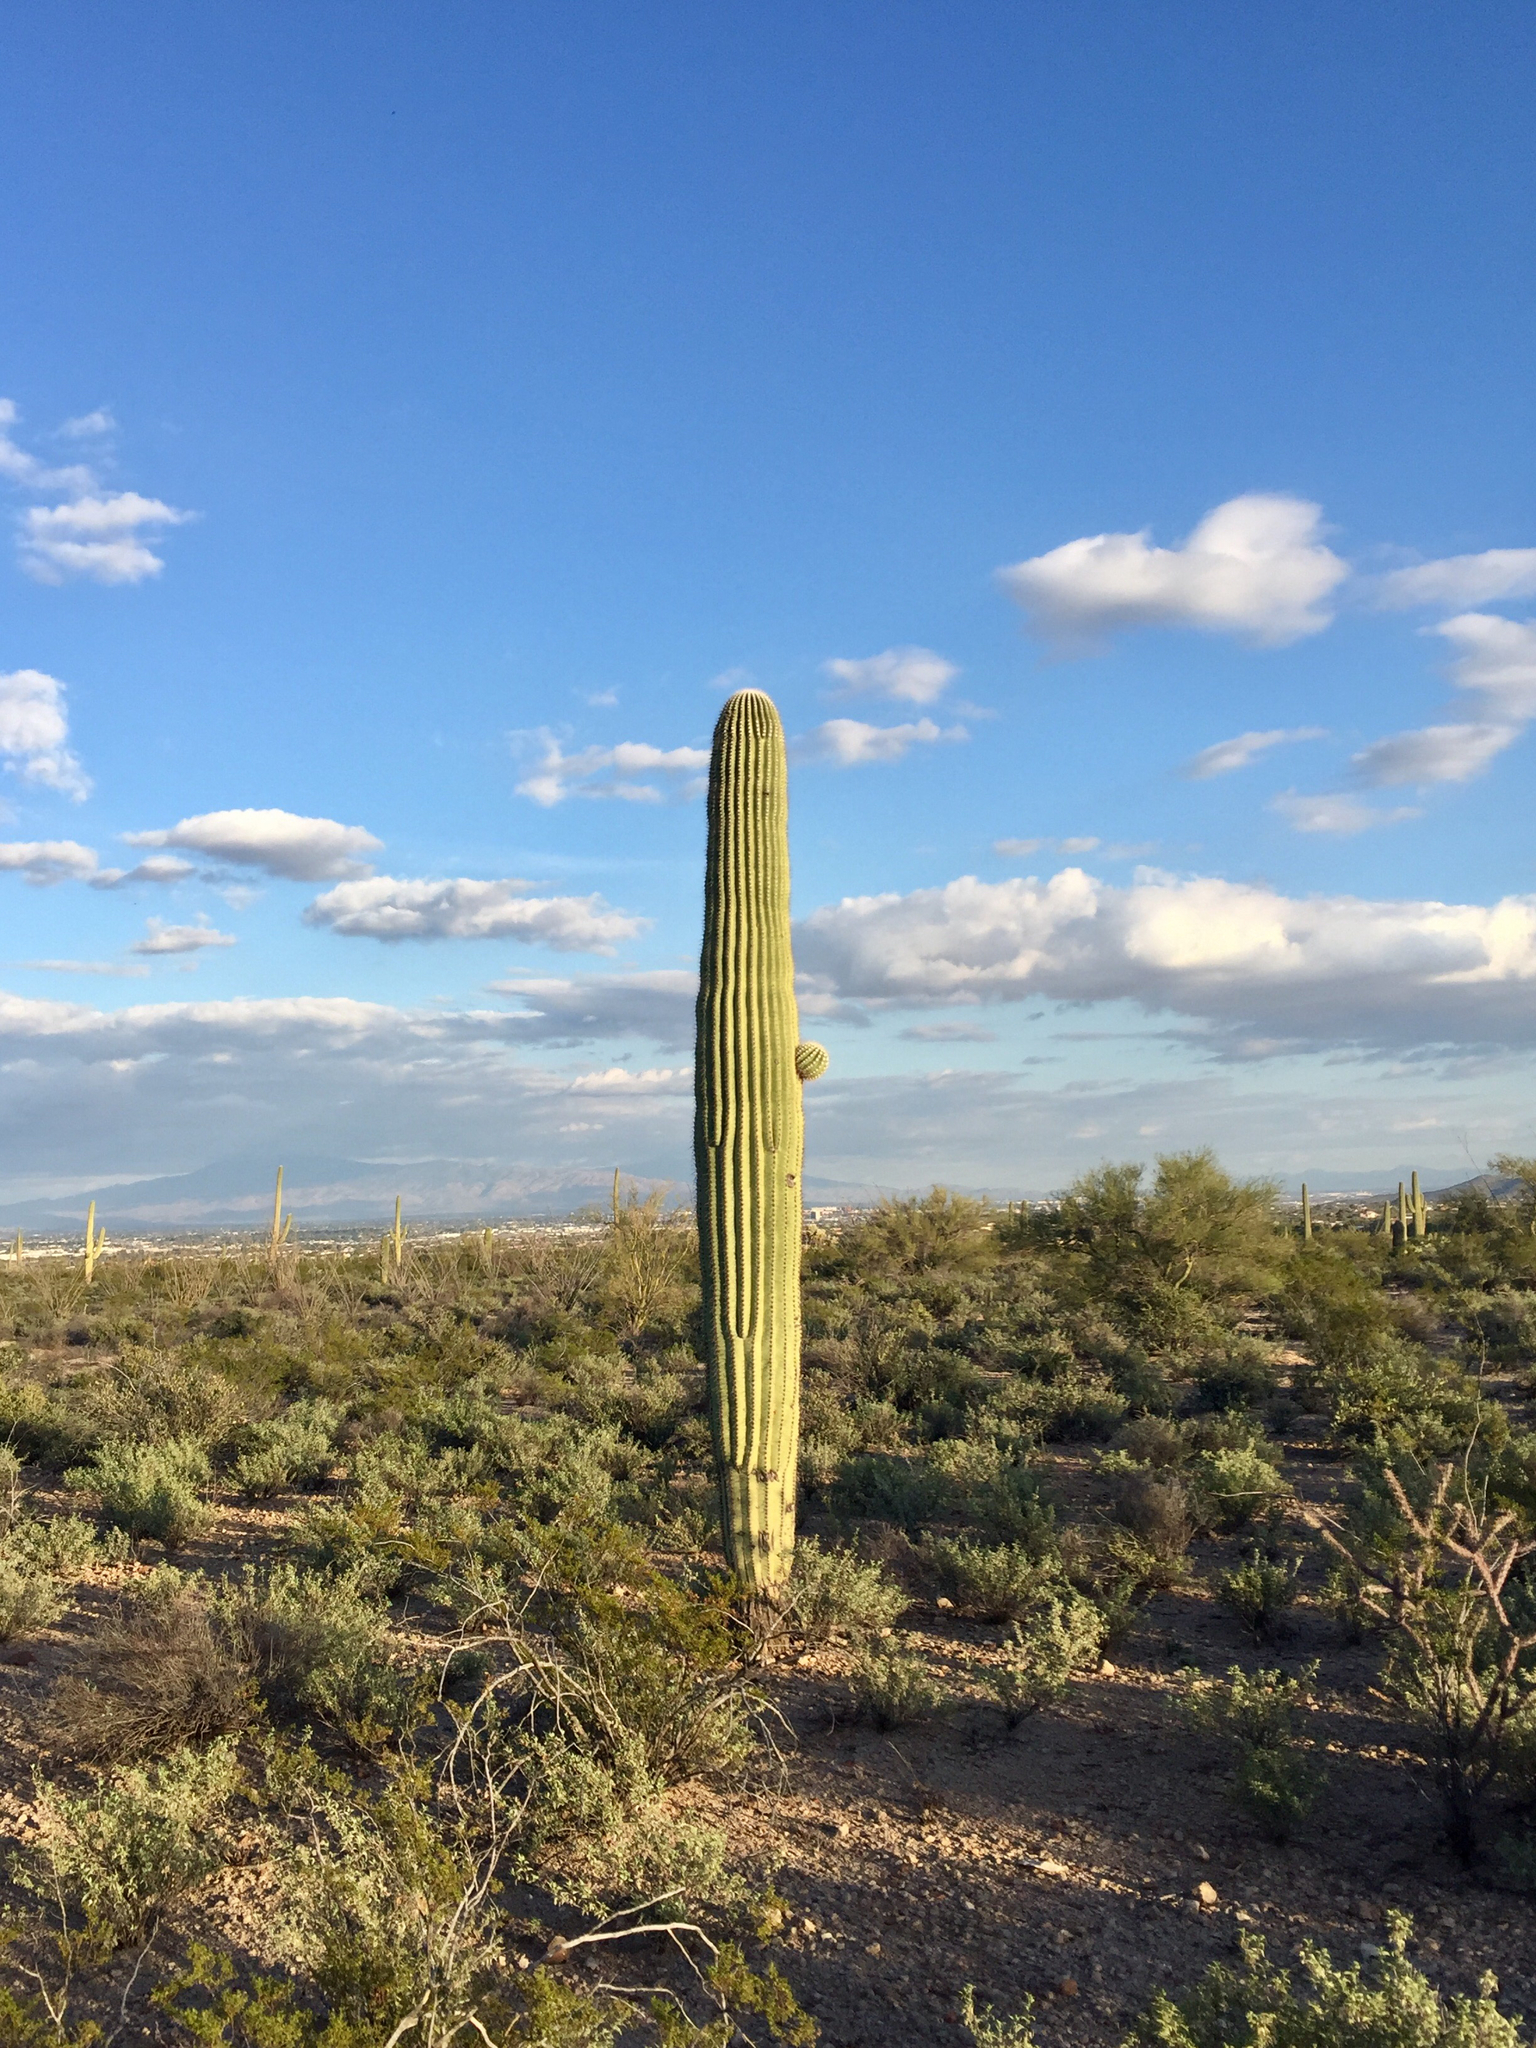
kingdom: Plantae
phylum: Tracheophyta
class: Magnoliopsida
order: Caryophyllales
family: Cactaceae
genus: Carnegiea
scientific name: Carnegiea gigantea
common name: Saguaro
